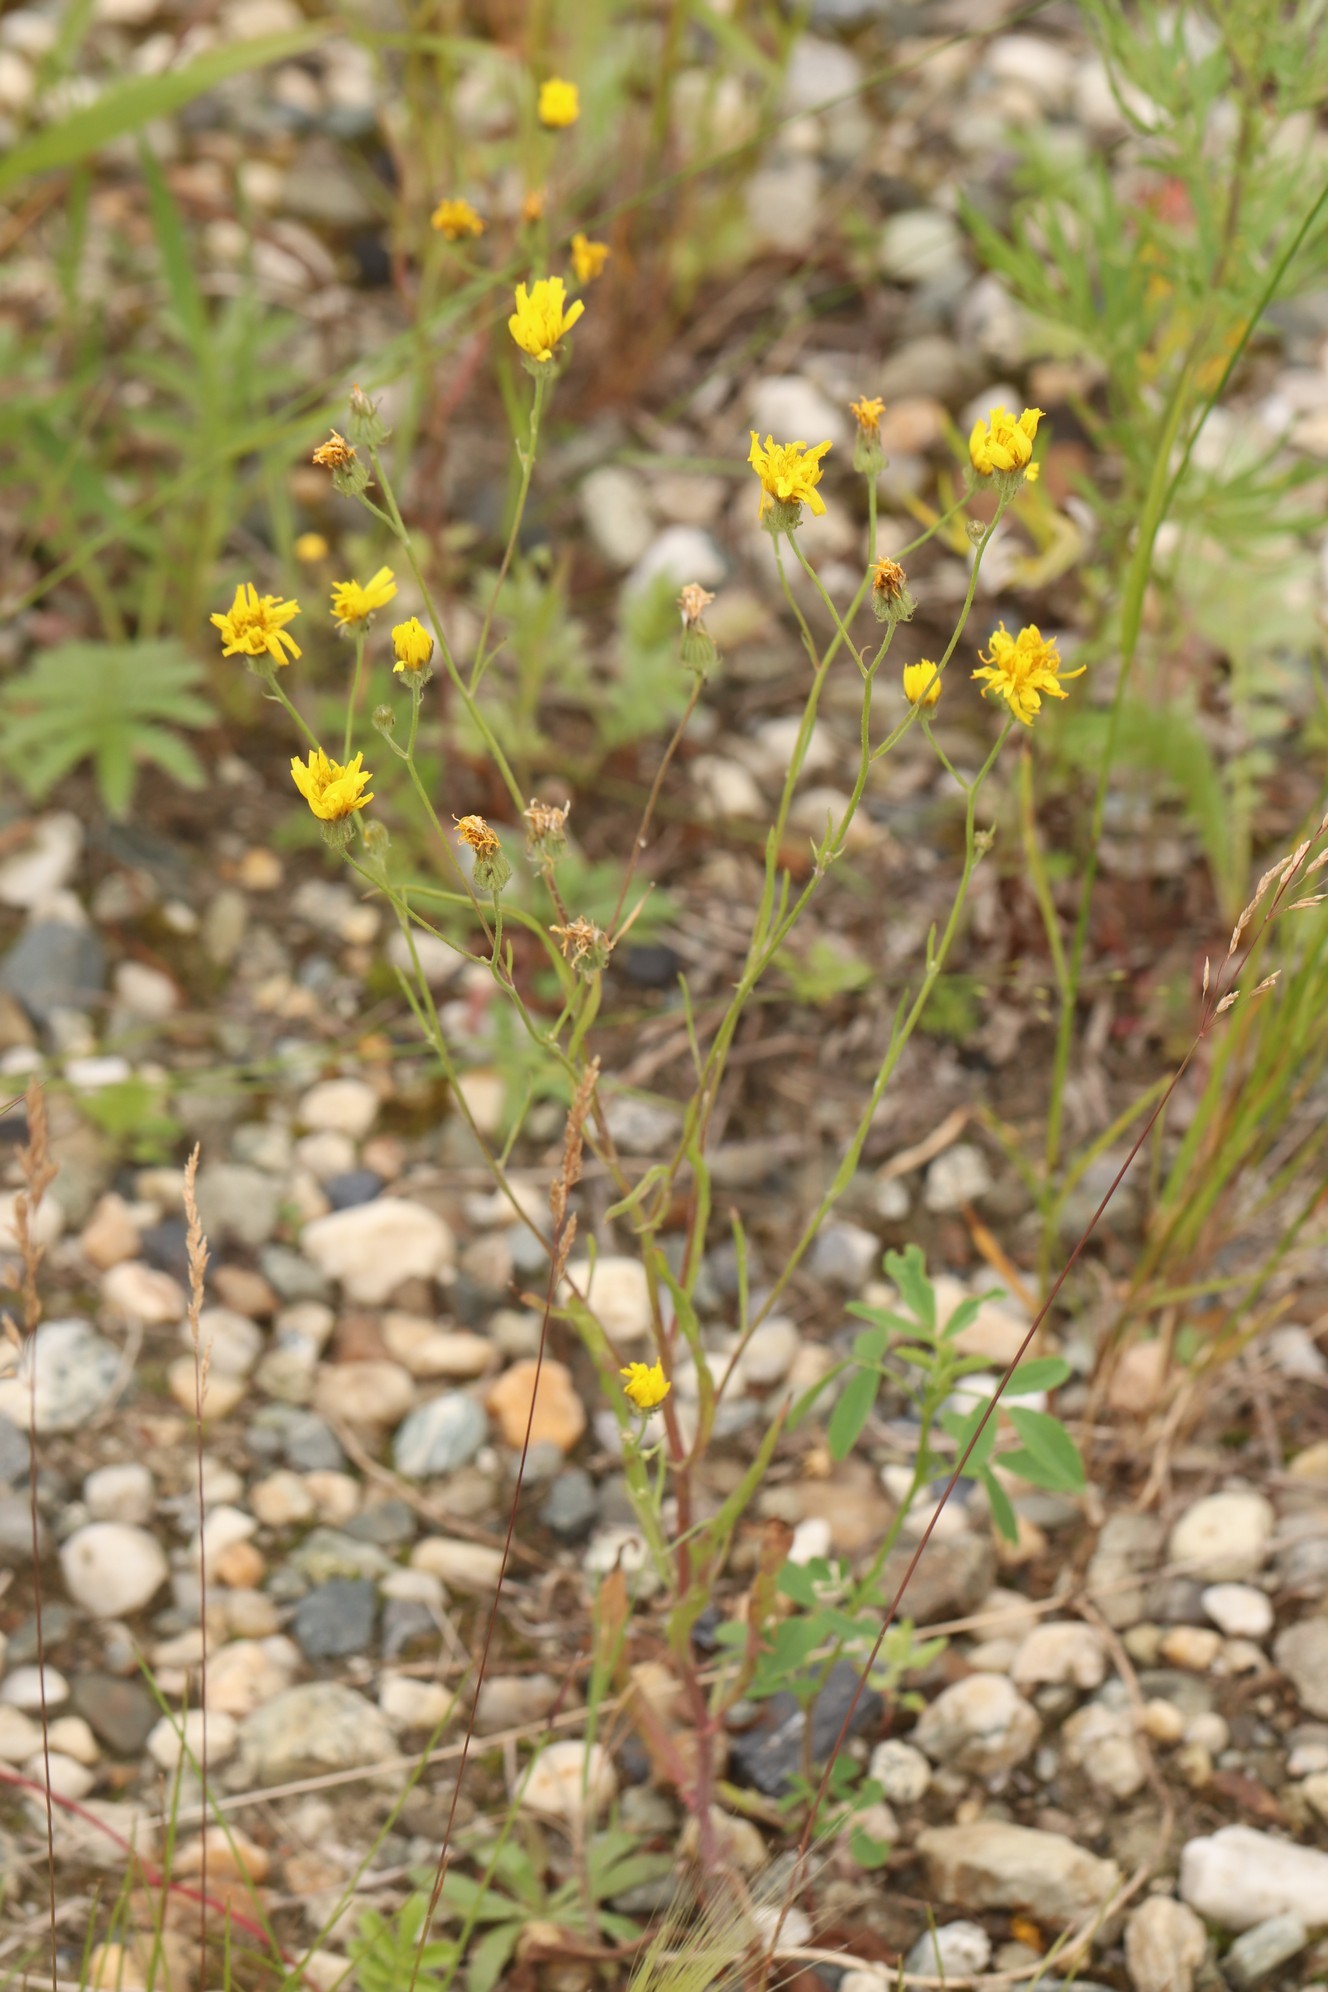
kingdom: Plantae
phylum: Tracheophyta
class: Magnoliopsida
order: Asterales
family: Asteraceae
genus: Crepis
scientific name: Crepis tectorum
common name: Narrow-leaved hawk's-beard
